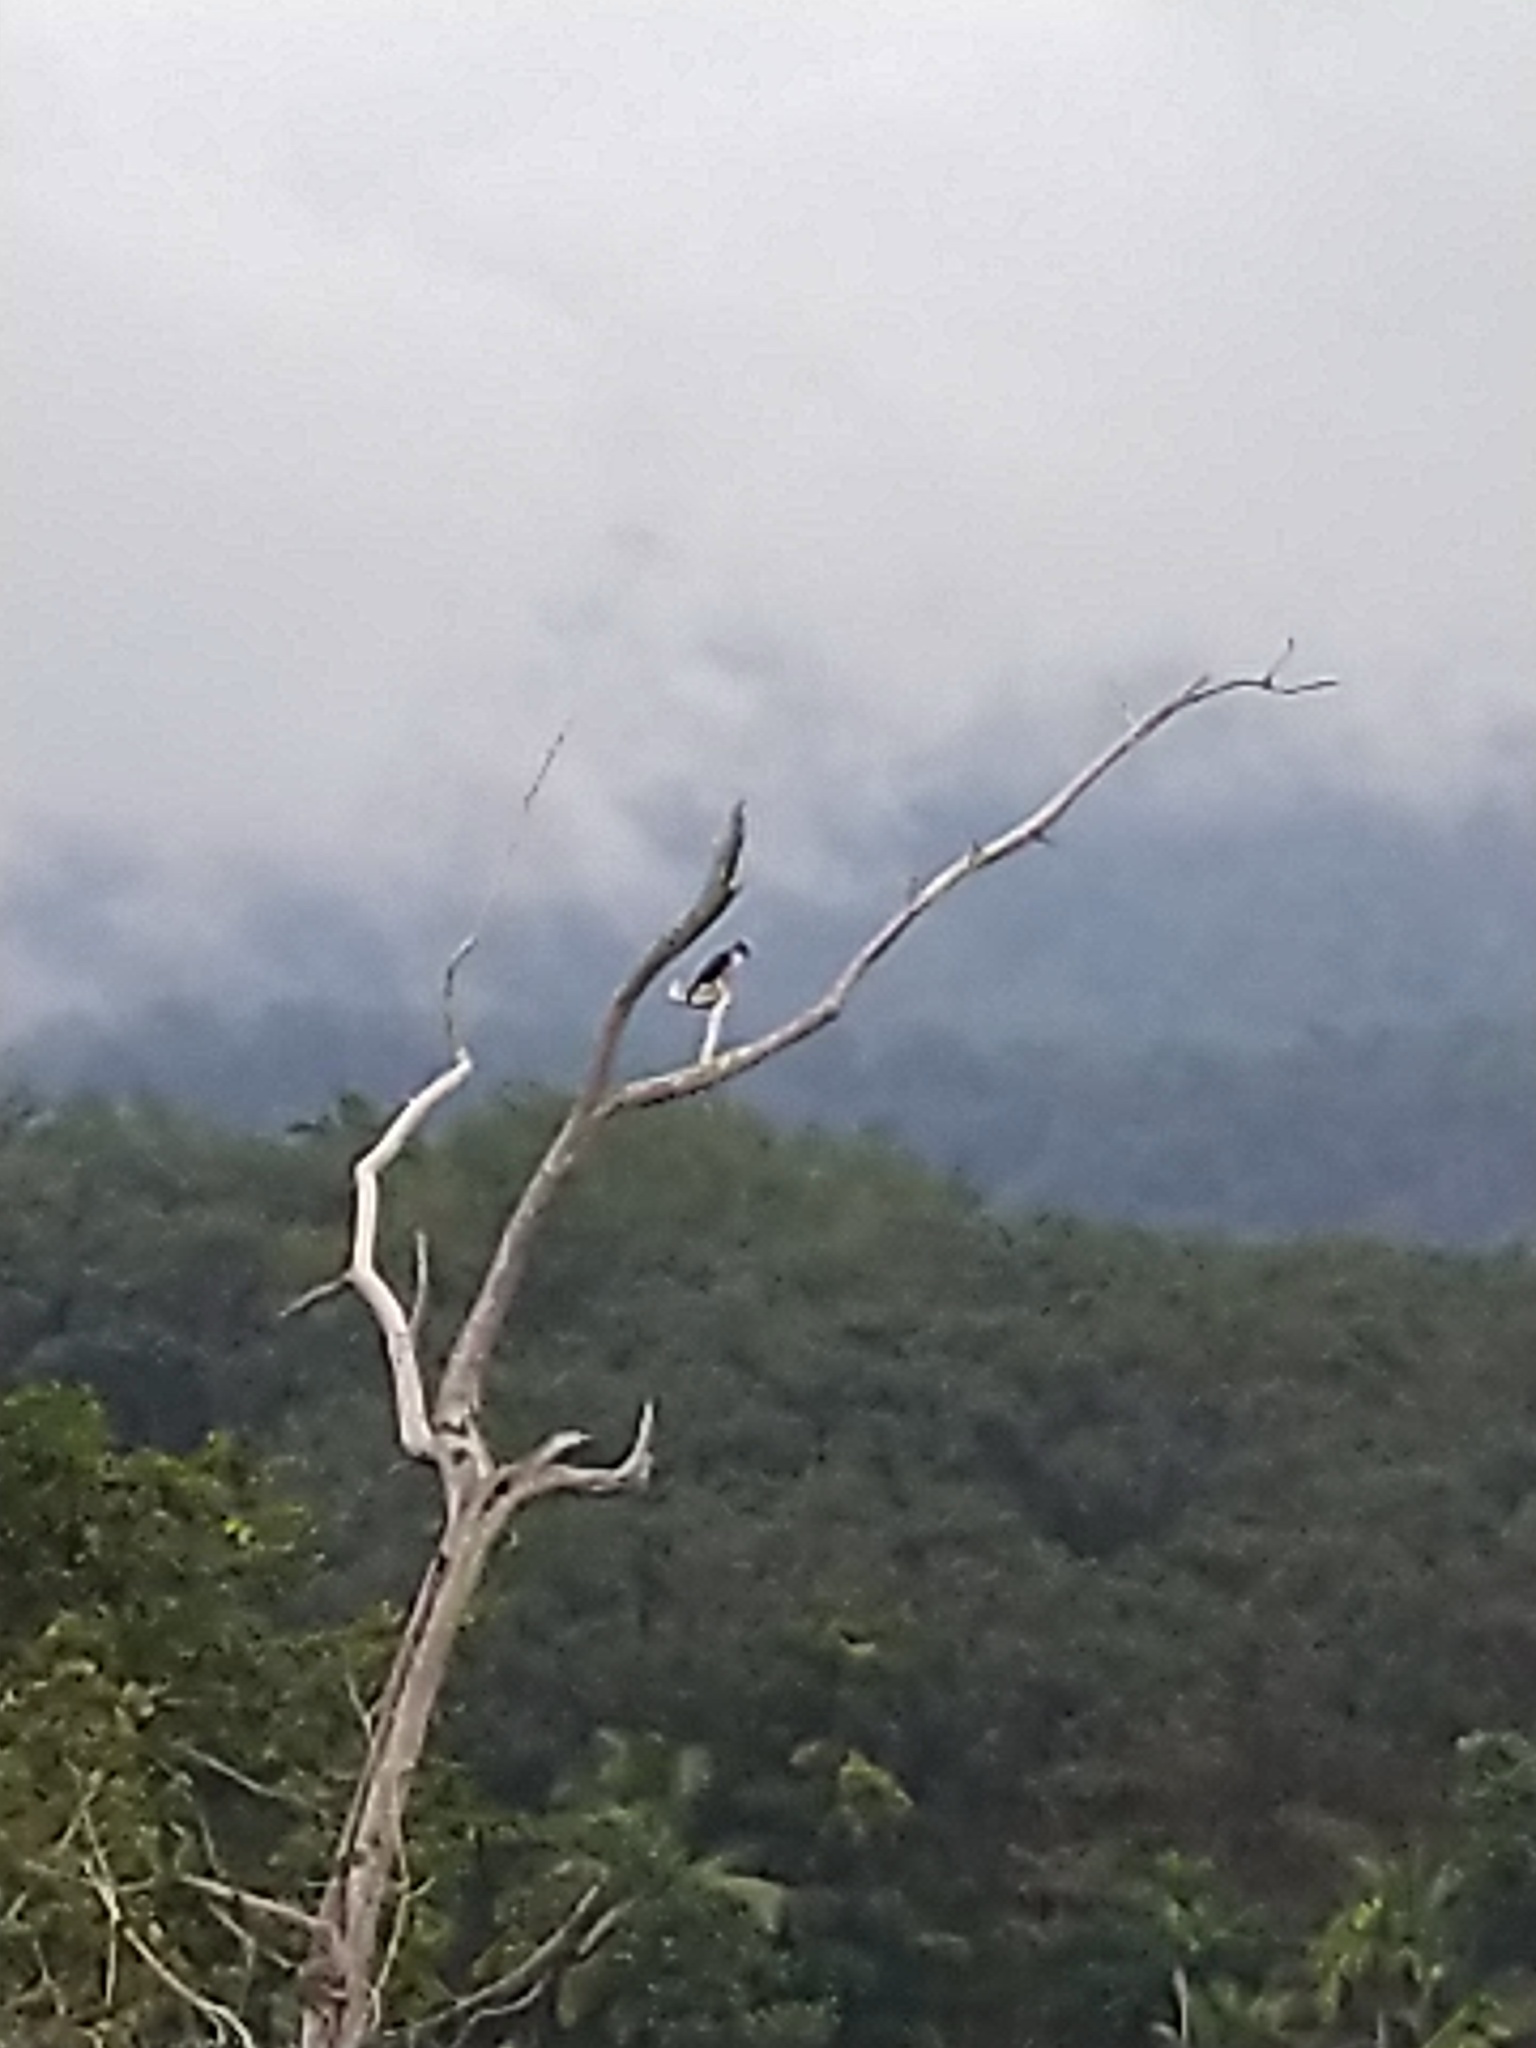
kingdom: Animalia
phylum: Chordata
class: Aves
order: Accipitriformes
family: Accipitridae
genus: Lophotriorchis
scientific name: Lophotriorchis kienerii
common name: Rufous-bellied eagle
